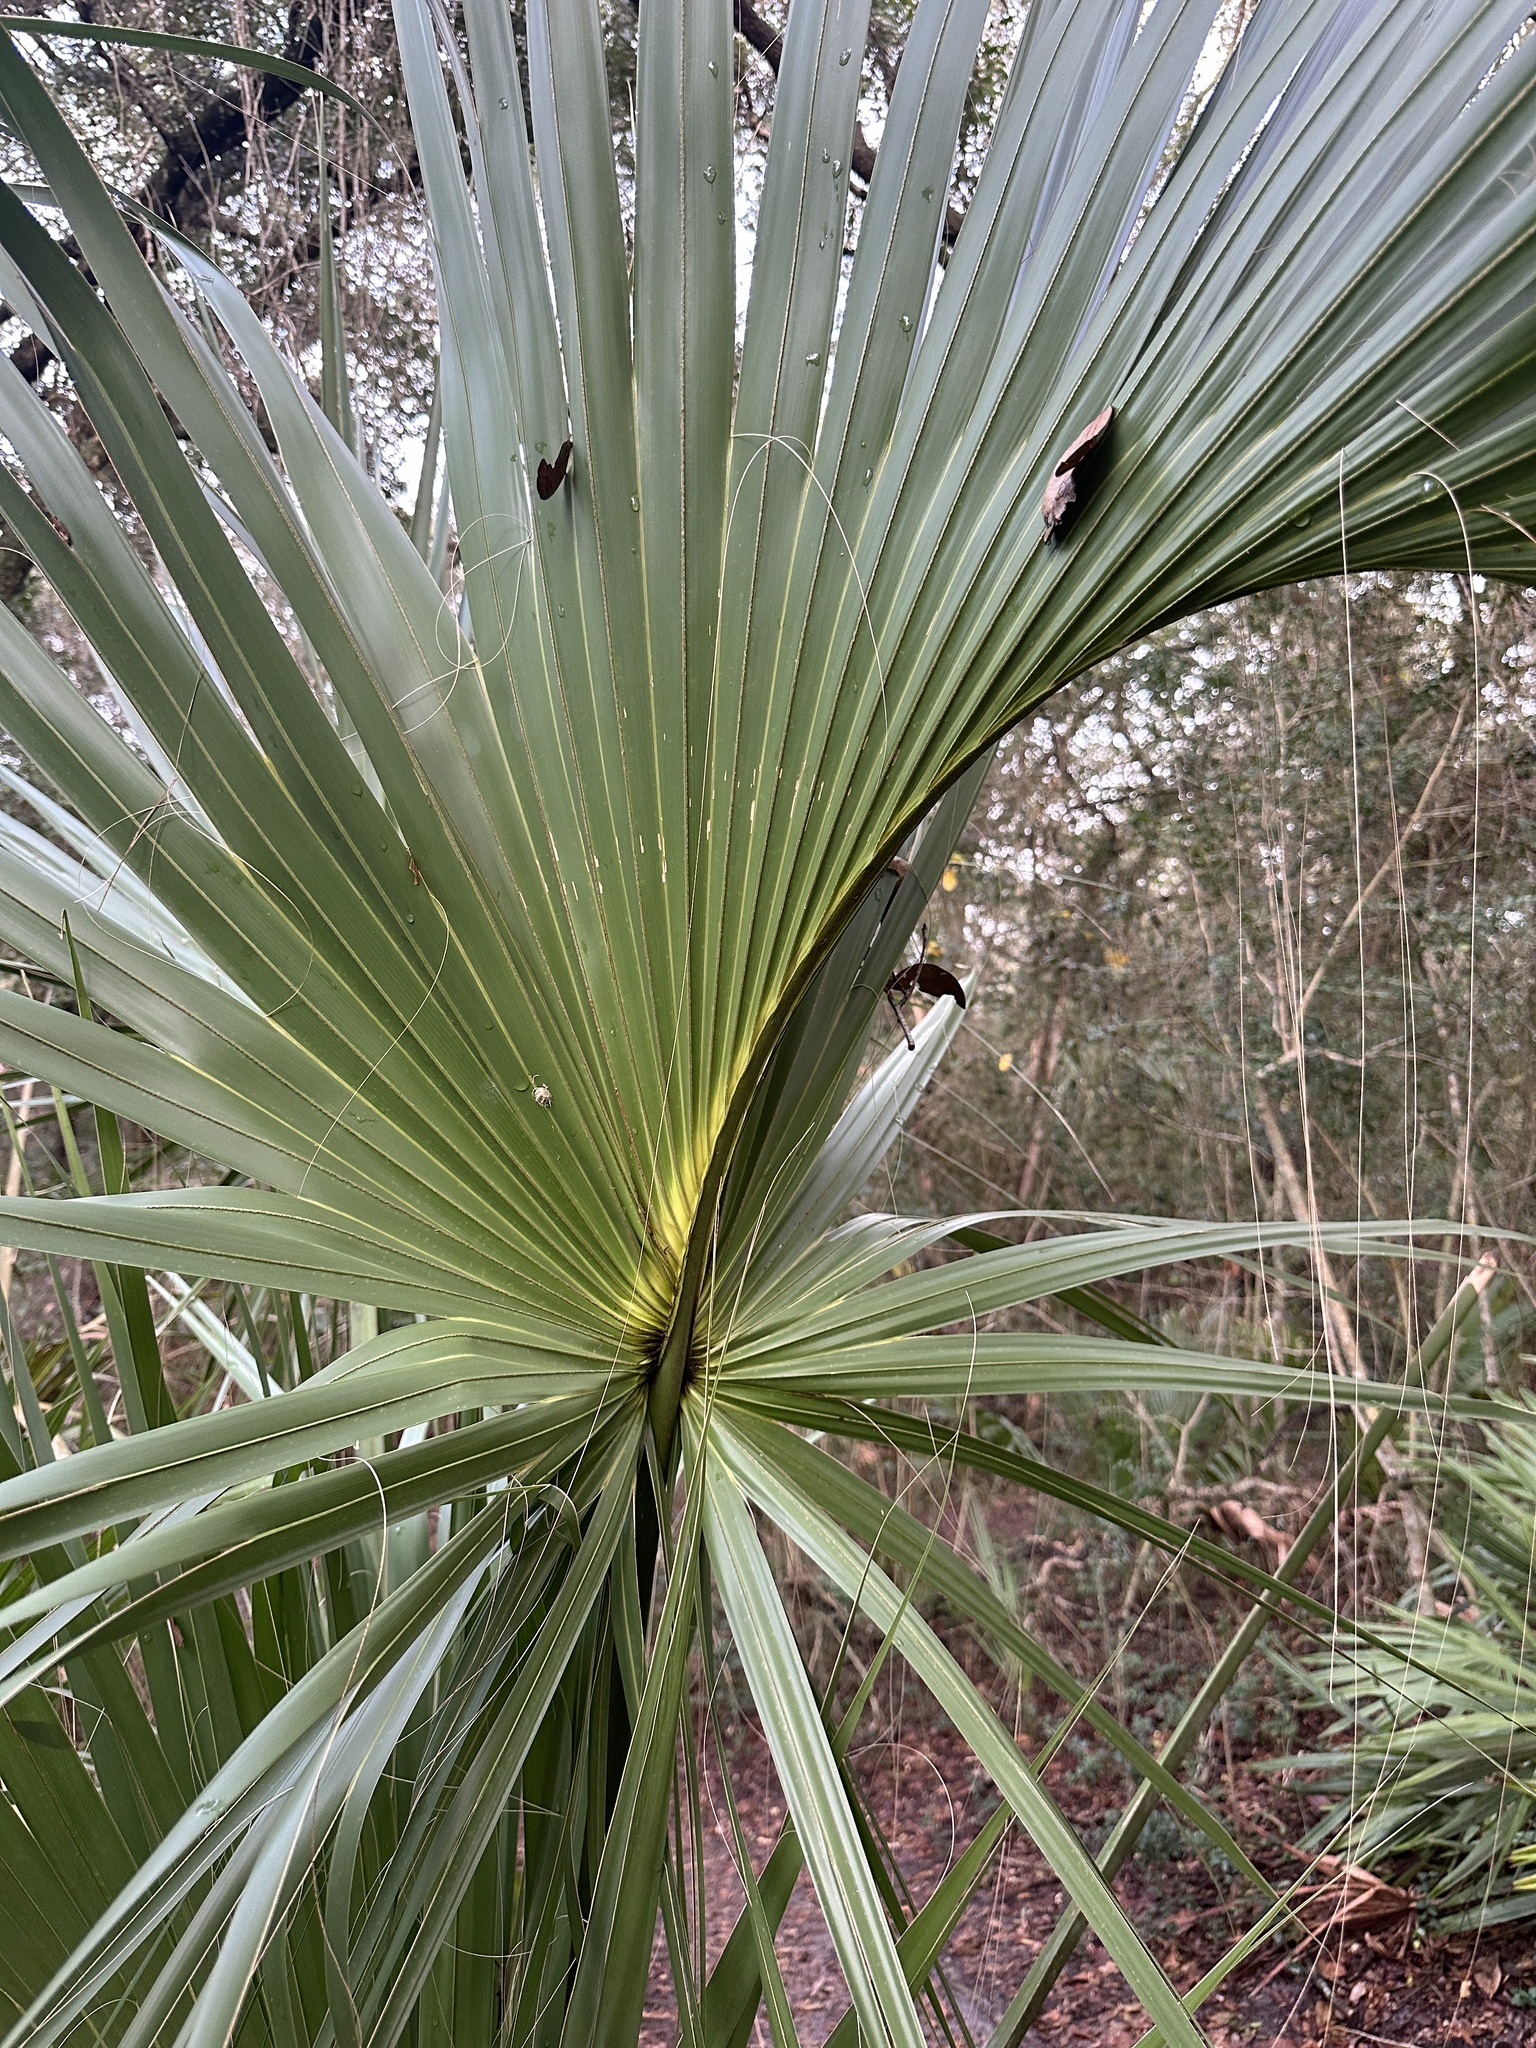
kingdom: Plantae
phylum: Tracheophyta
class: Liliopsida
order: Arecales
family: Arecaceae
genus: Sabal
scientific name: Sabal palmetto
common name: Blue palmetto
